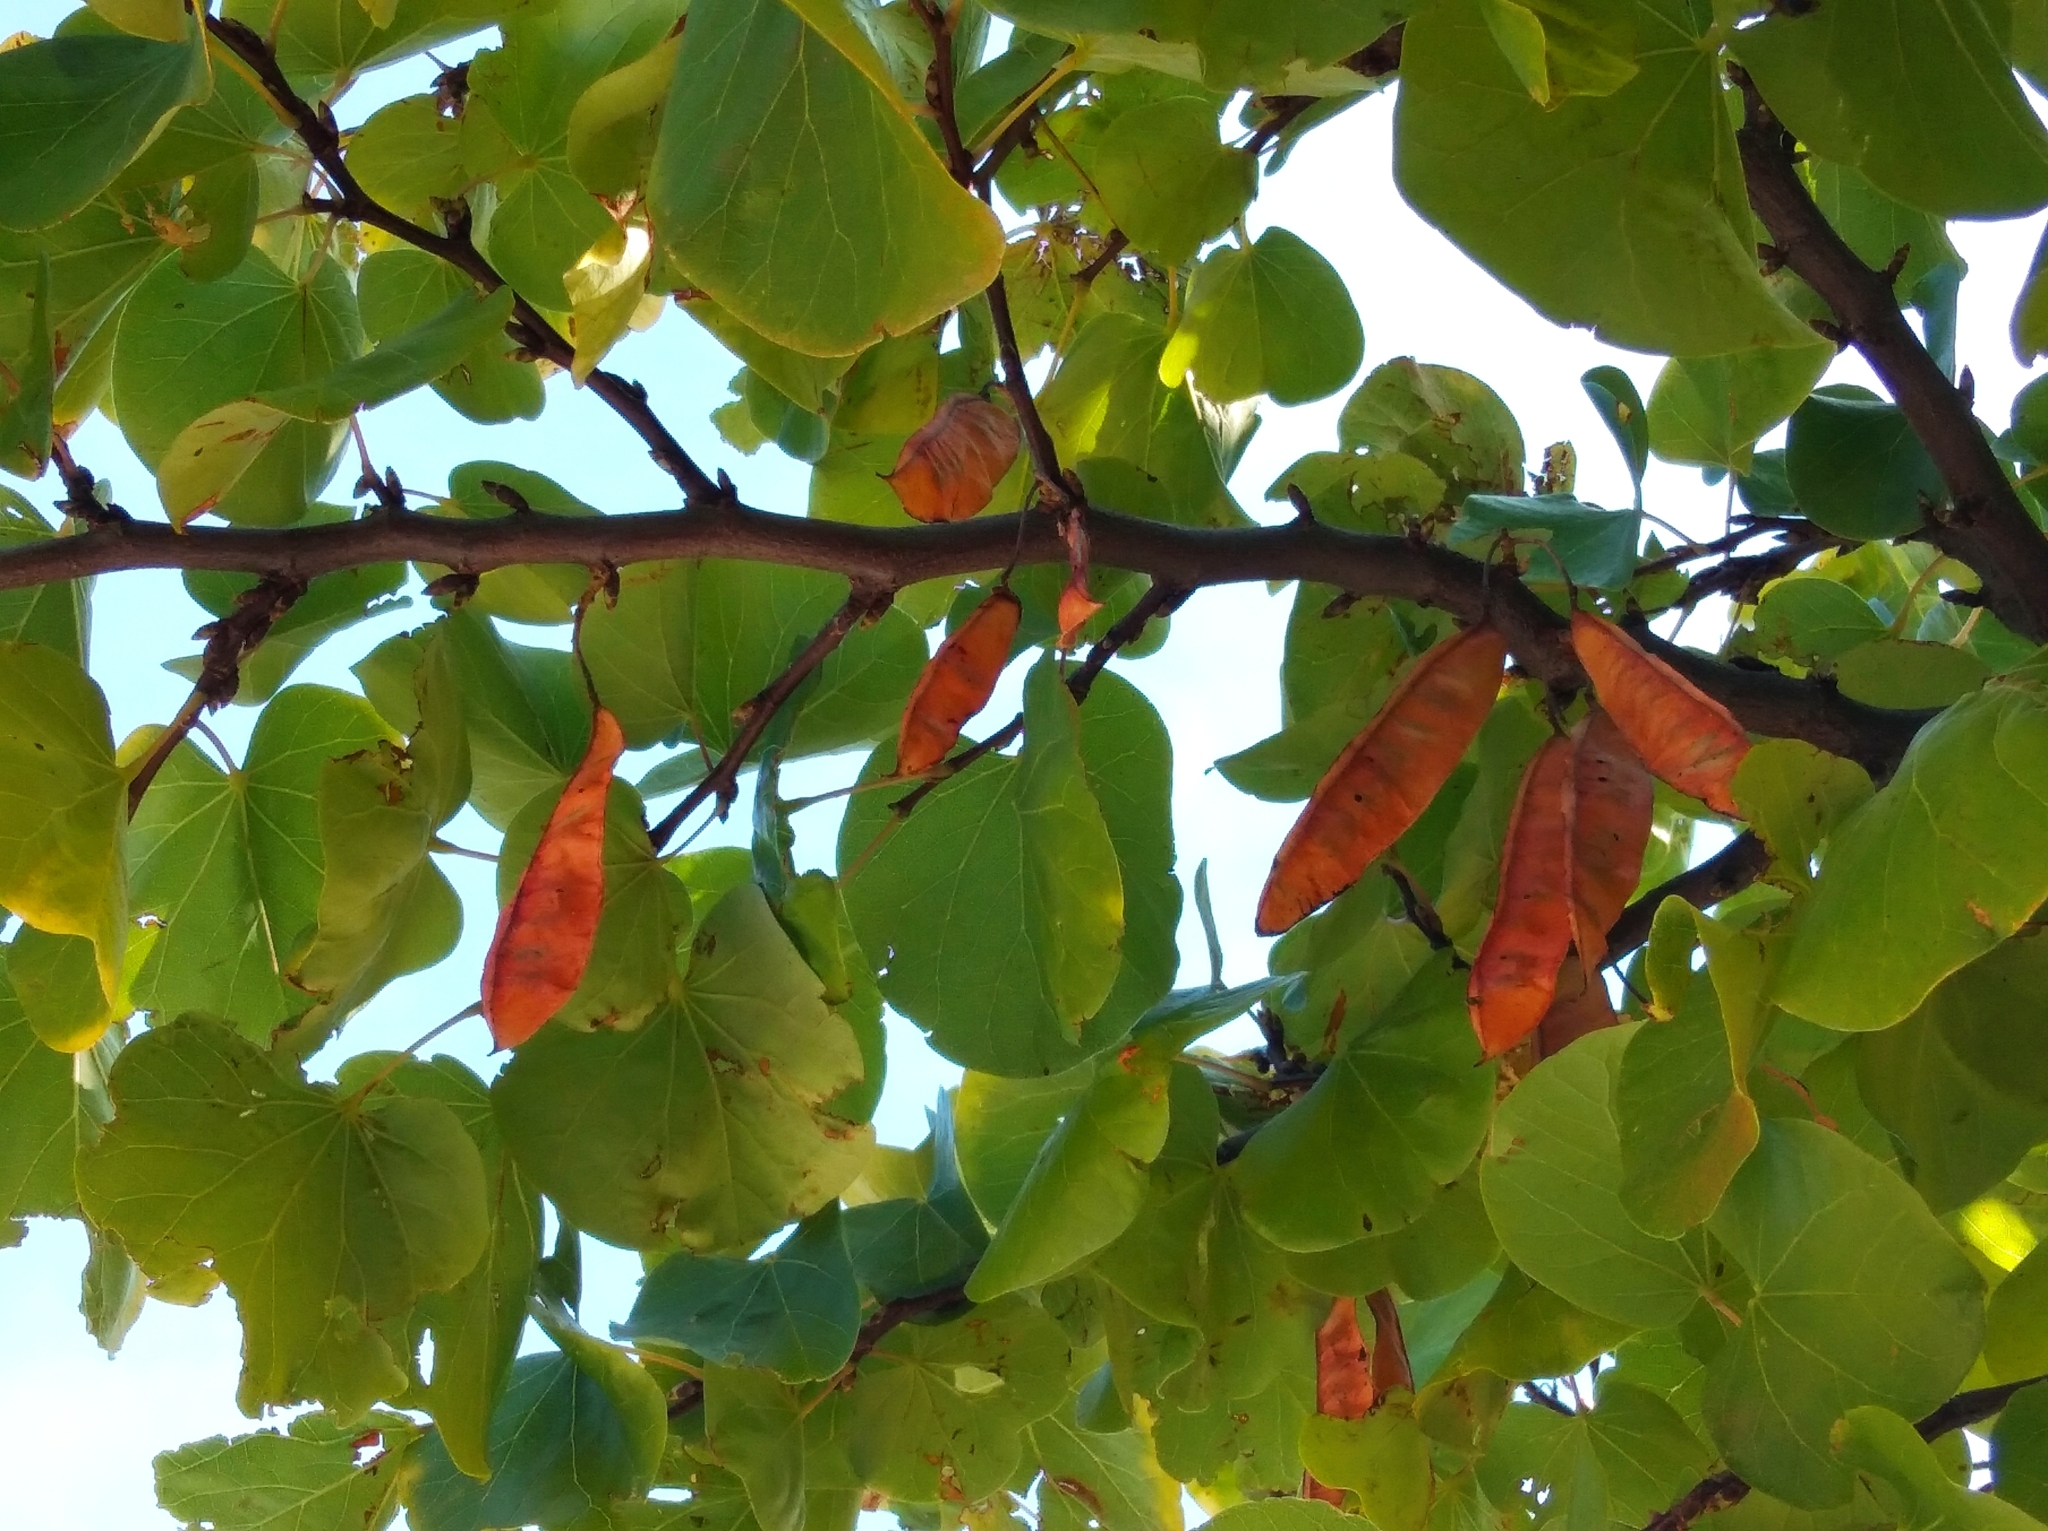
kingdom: Plantae
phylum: Tracheophyta
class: Magnoliopsida
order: Fabales
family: Fabaceae
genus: Cercis
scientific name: Cercis siliquastrum
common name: Judas tree
